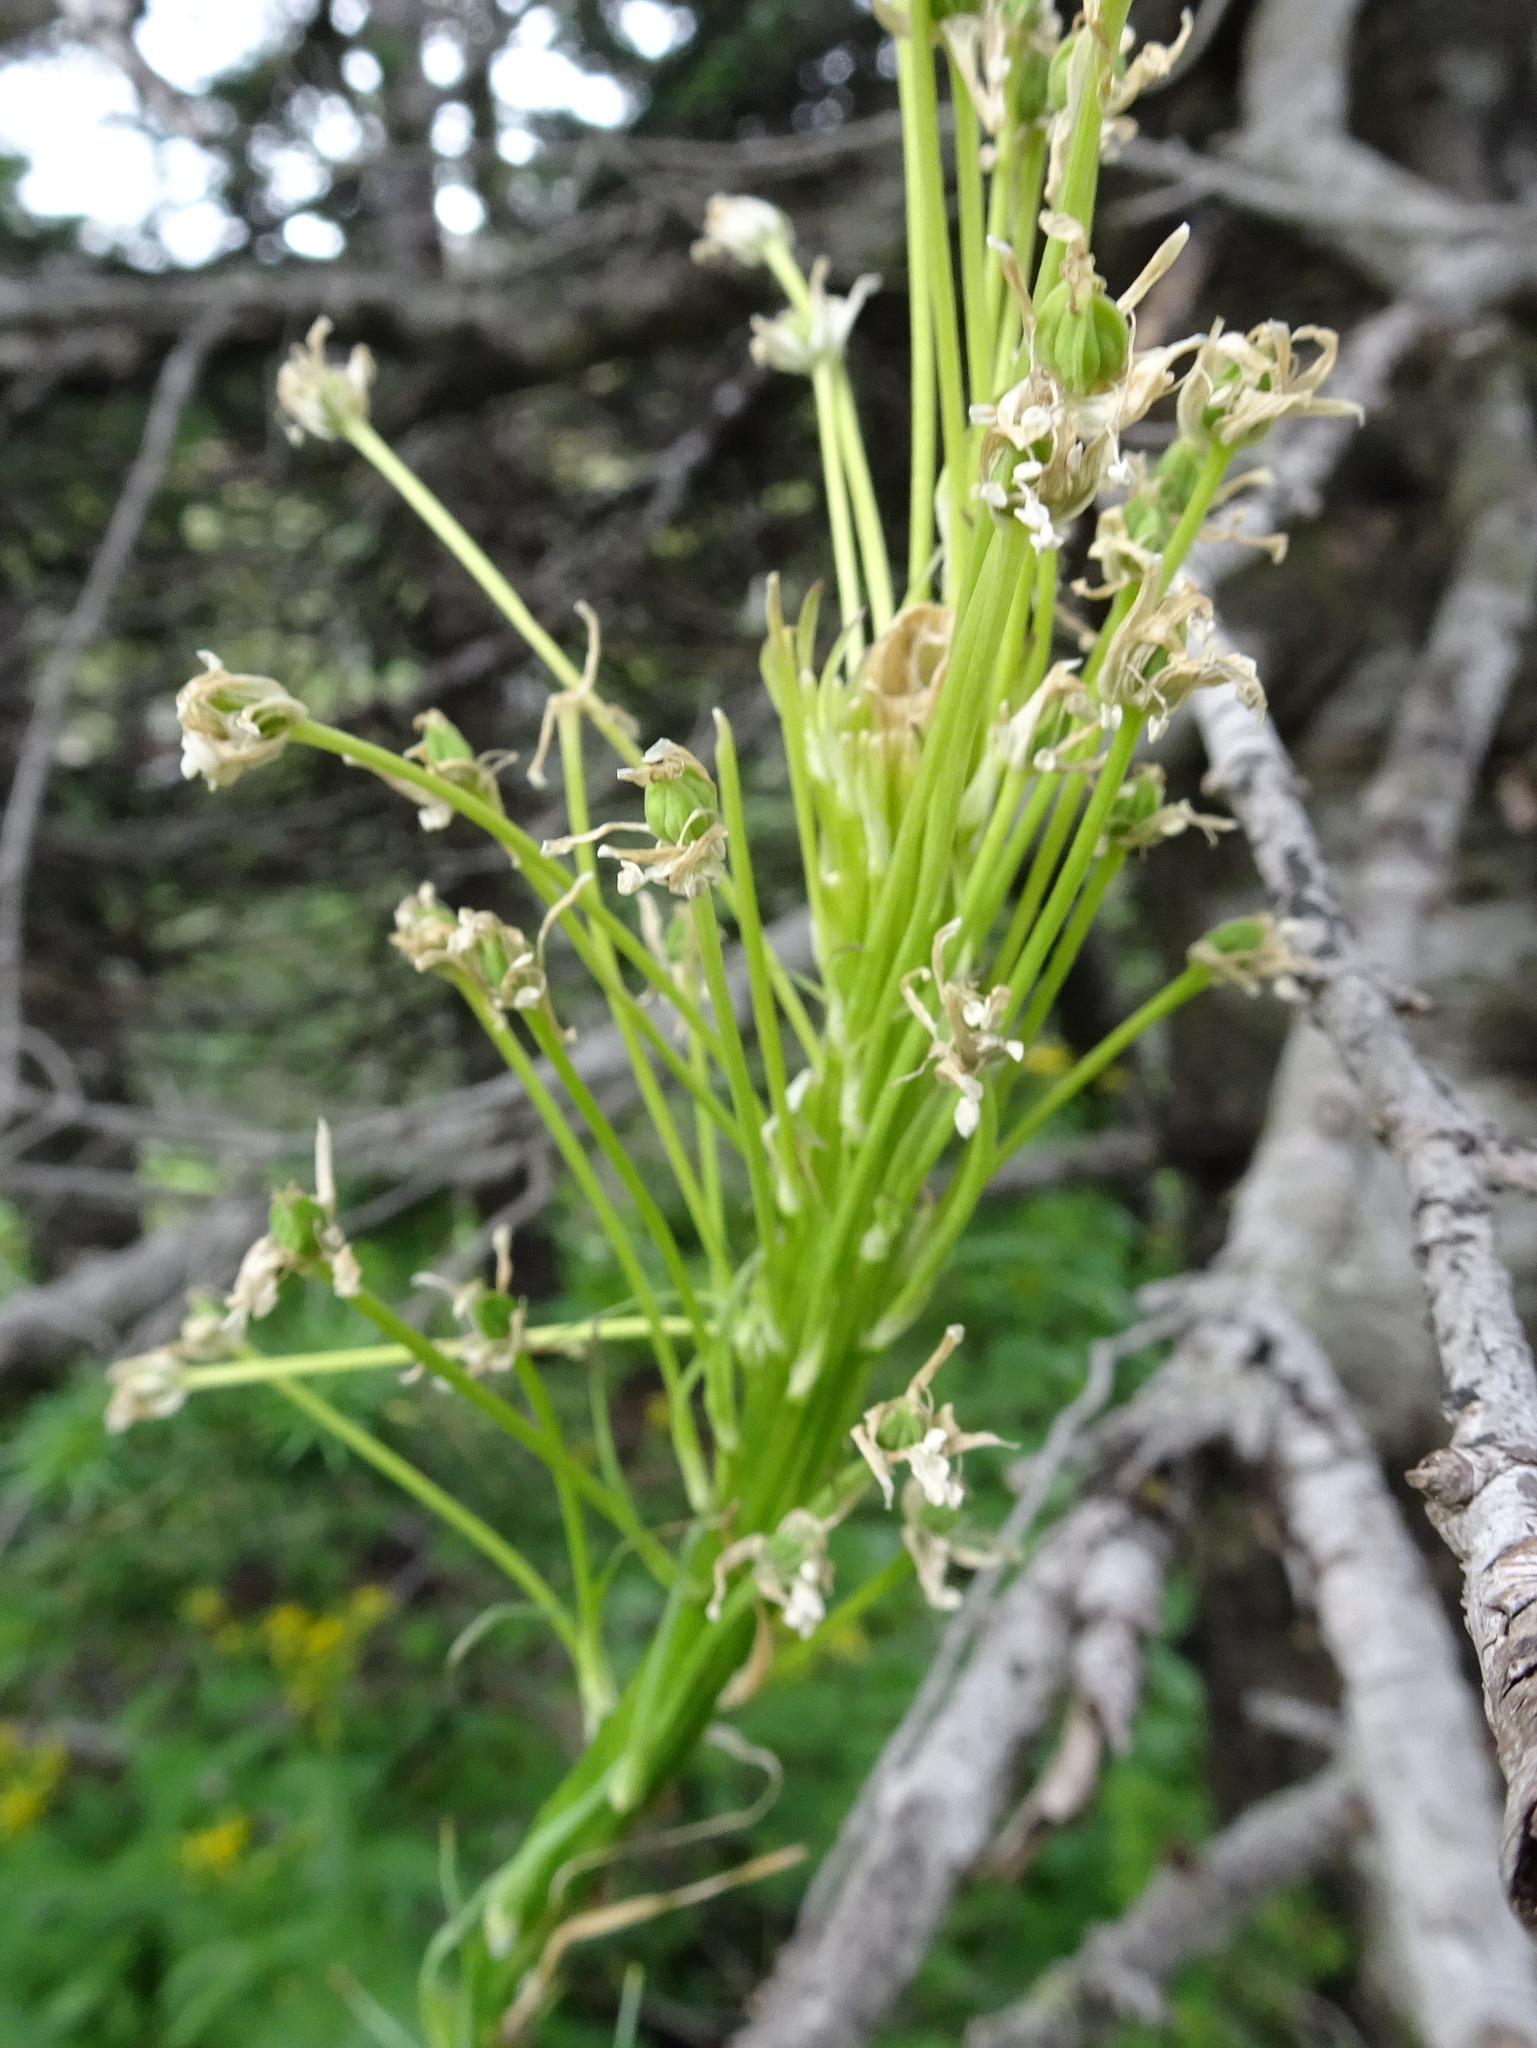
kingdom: Plantae
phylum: Tracheophyta
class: Liliopsida
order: Liliales
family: Melanthiaceae
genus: Xerophyllum
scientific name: Xerophyllum tenax
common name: Bear-grass
